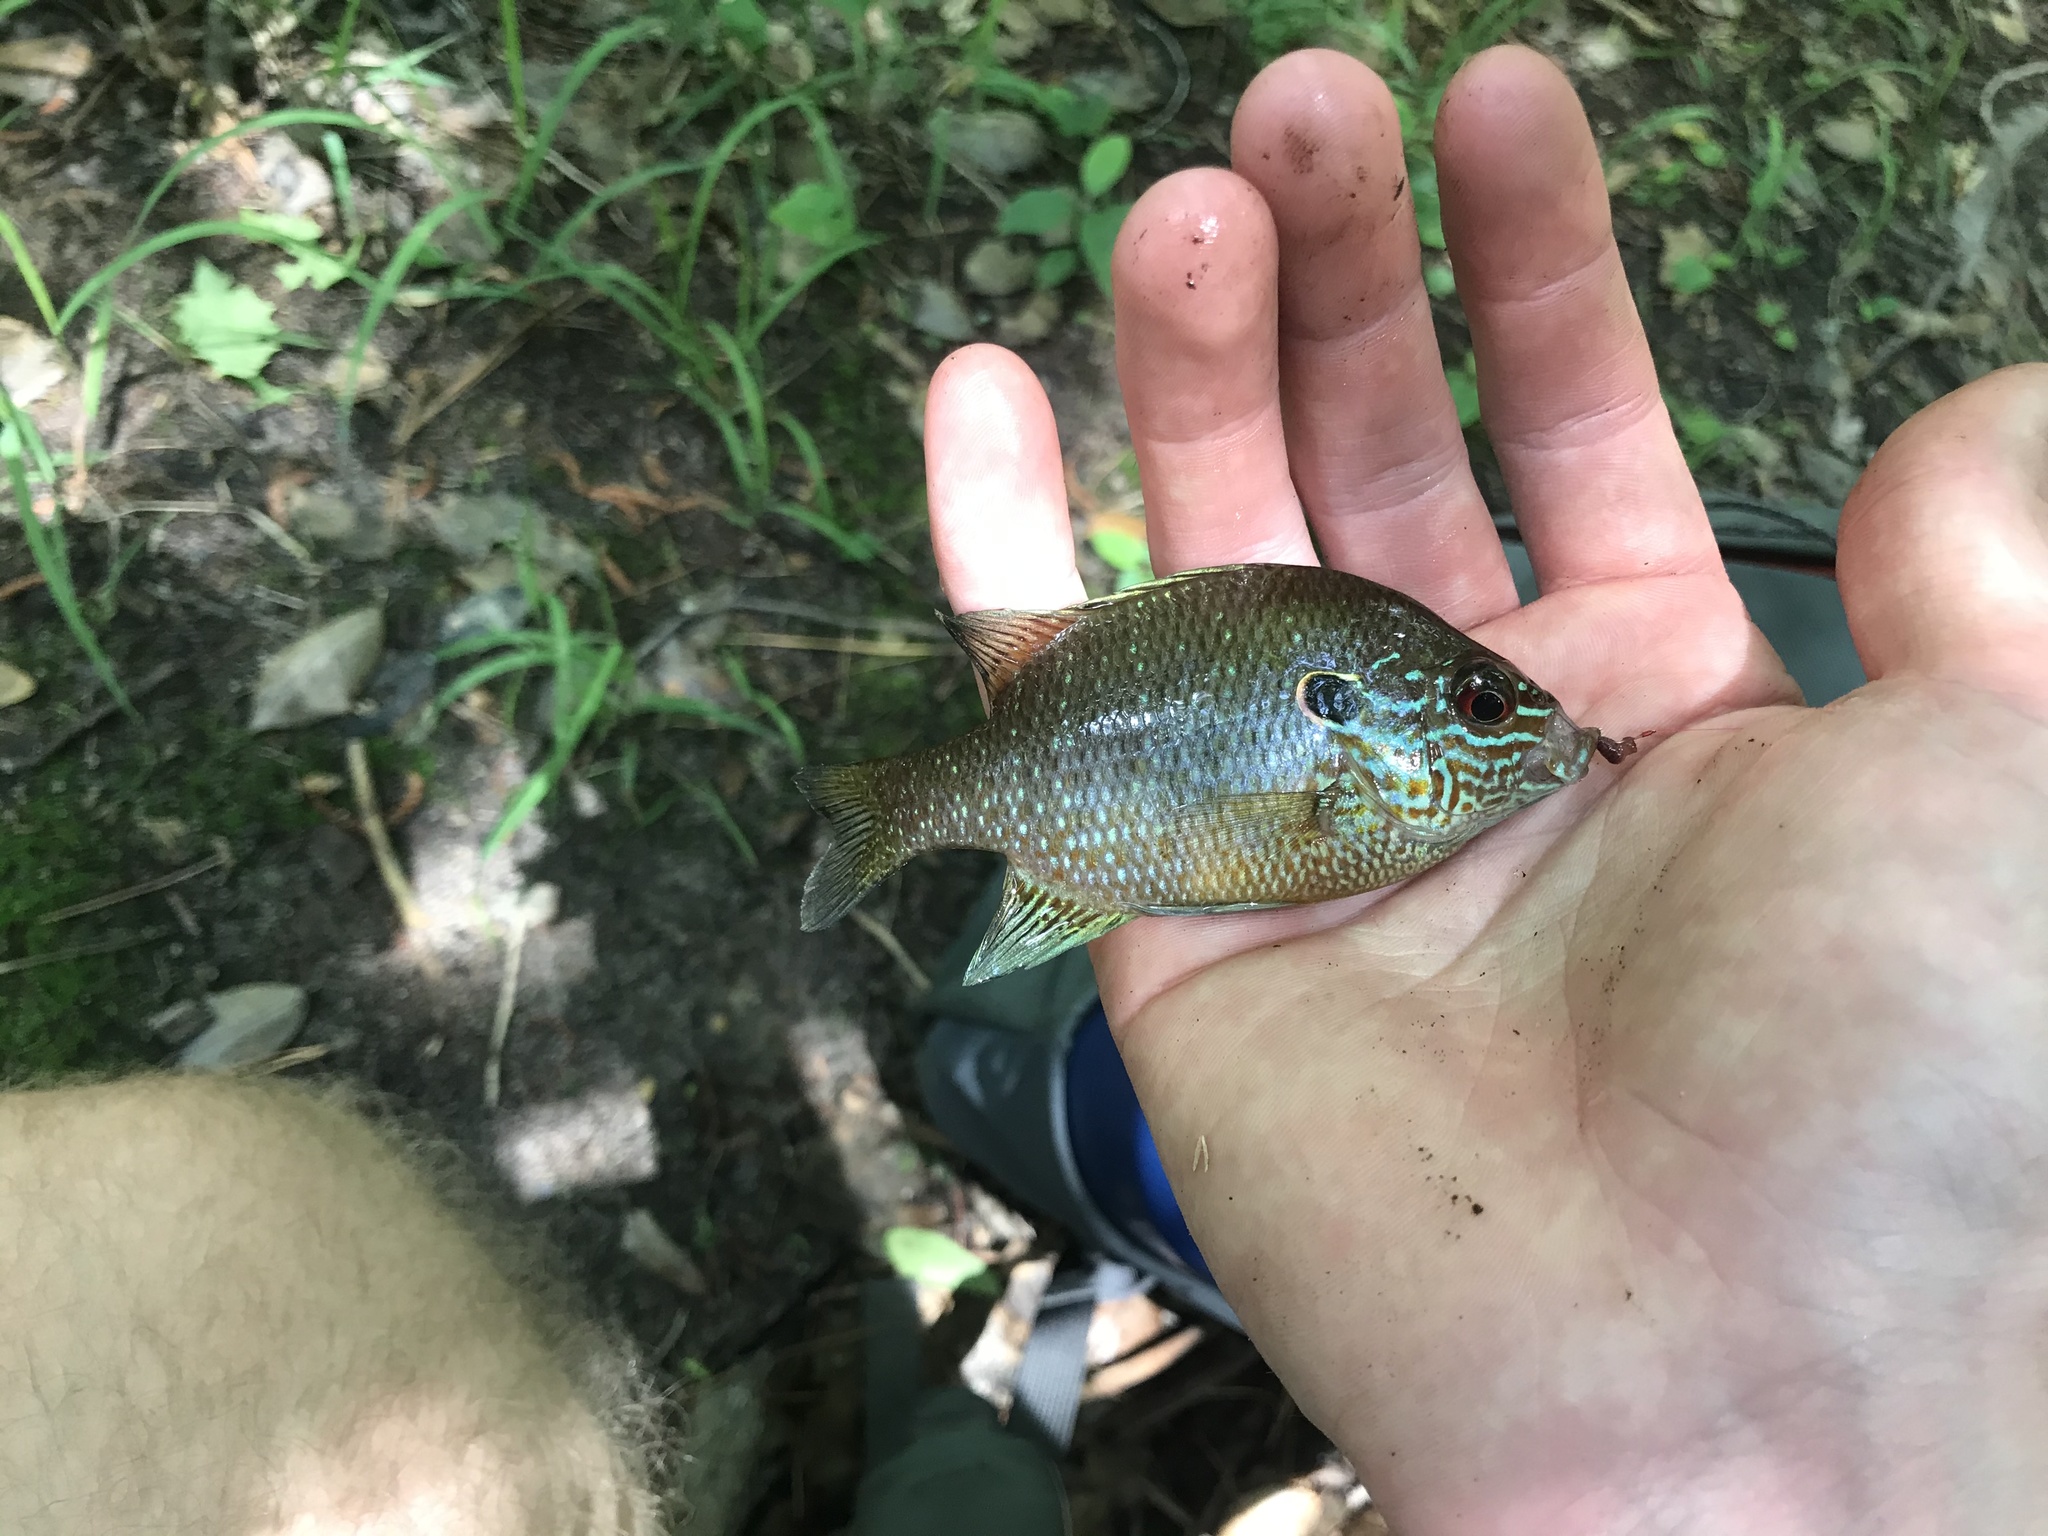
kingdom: Animalia
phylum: Chordata
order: Perciformes
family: Centrarchidae
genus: Lepomis
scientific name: Lepomis marginatus
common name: Dollar sunfish
